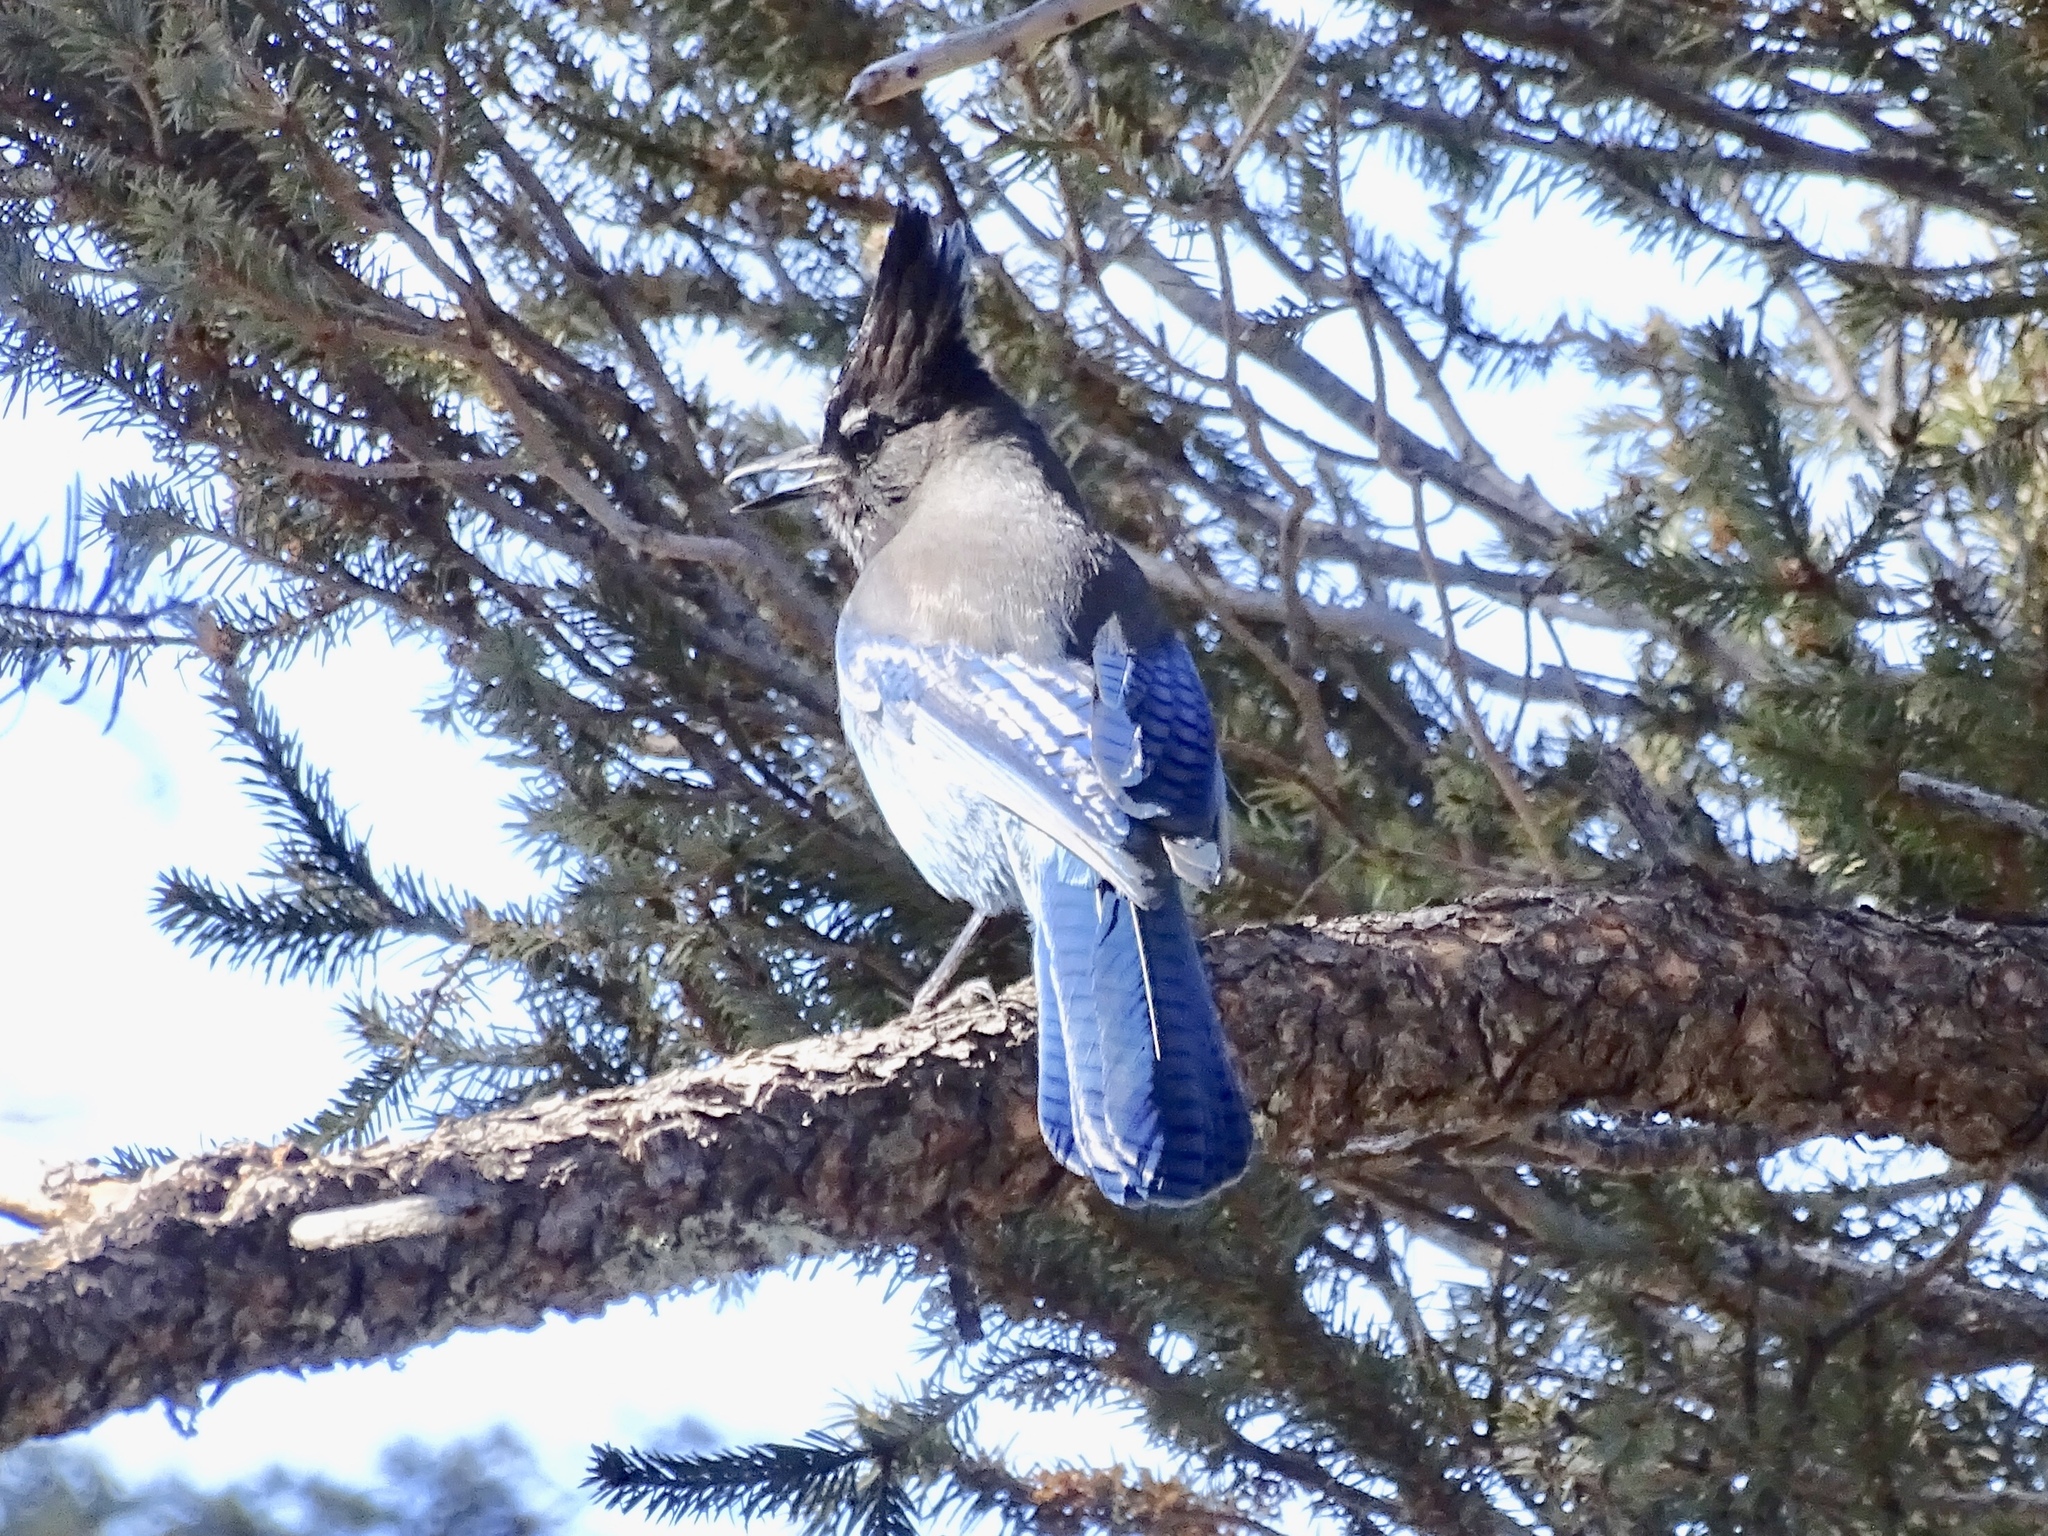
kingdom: Animalia
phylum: Chordata
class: Aves
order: Passeriformes
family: Corvidae
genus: Cyanocitta
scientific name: Cyanocitta stelleri
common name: Steller's jay
